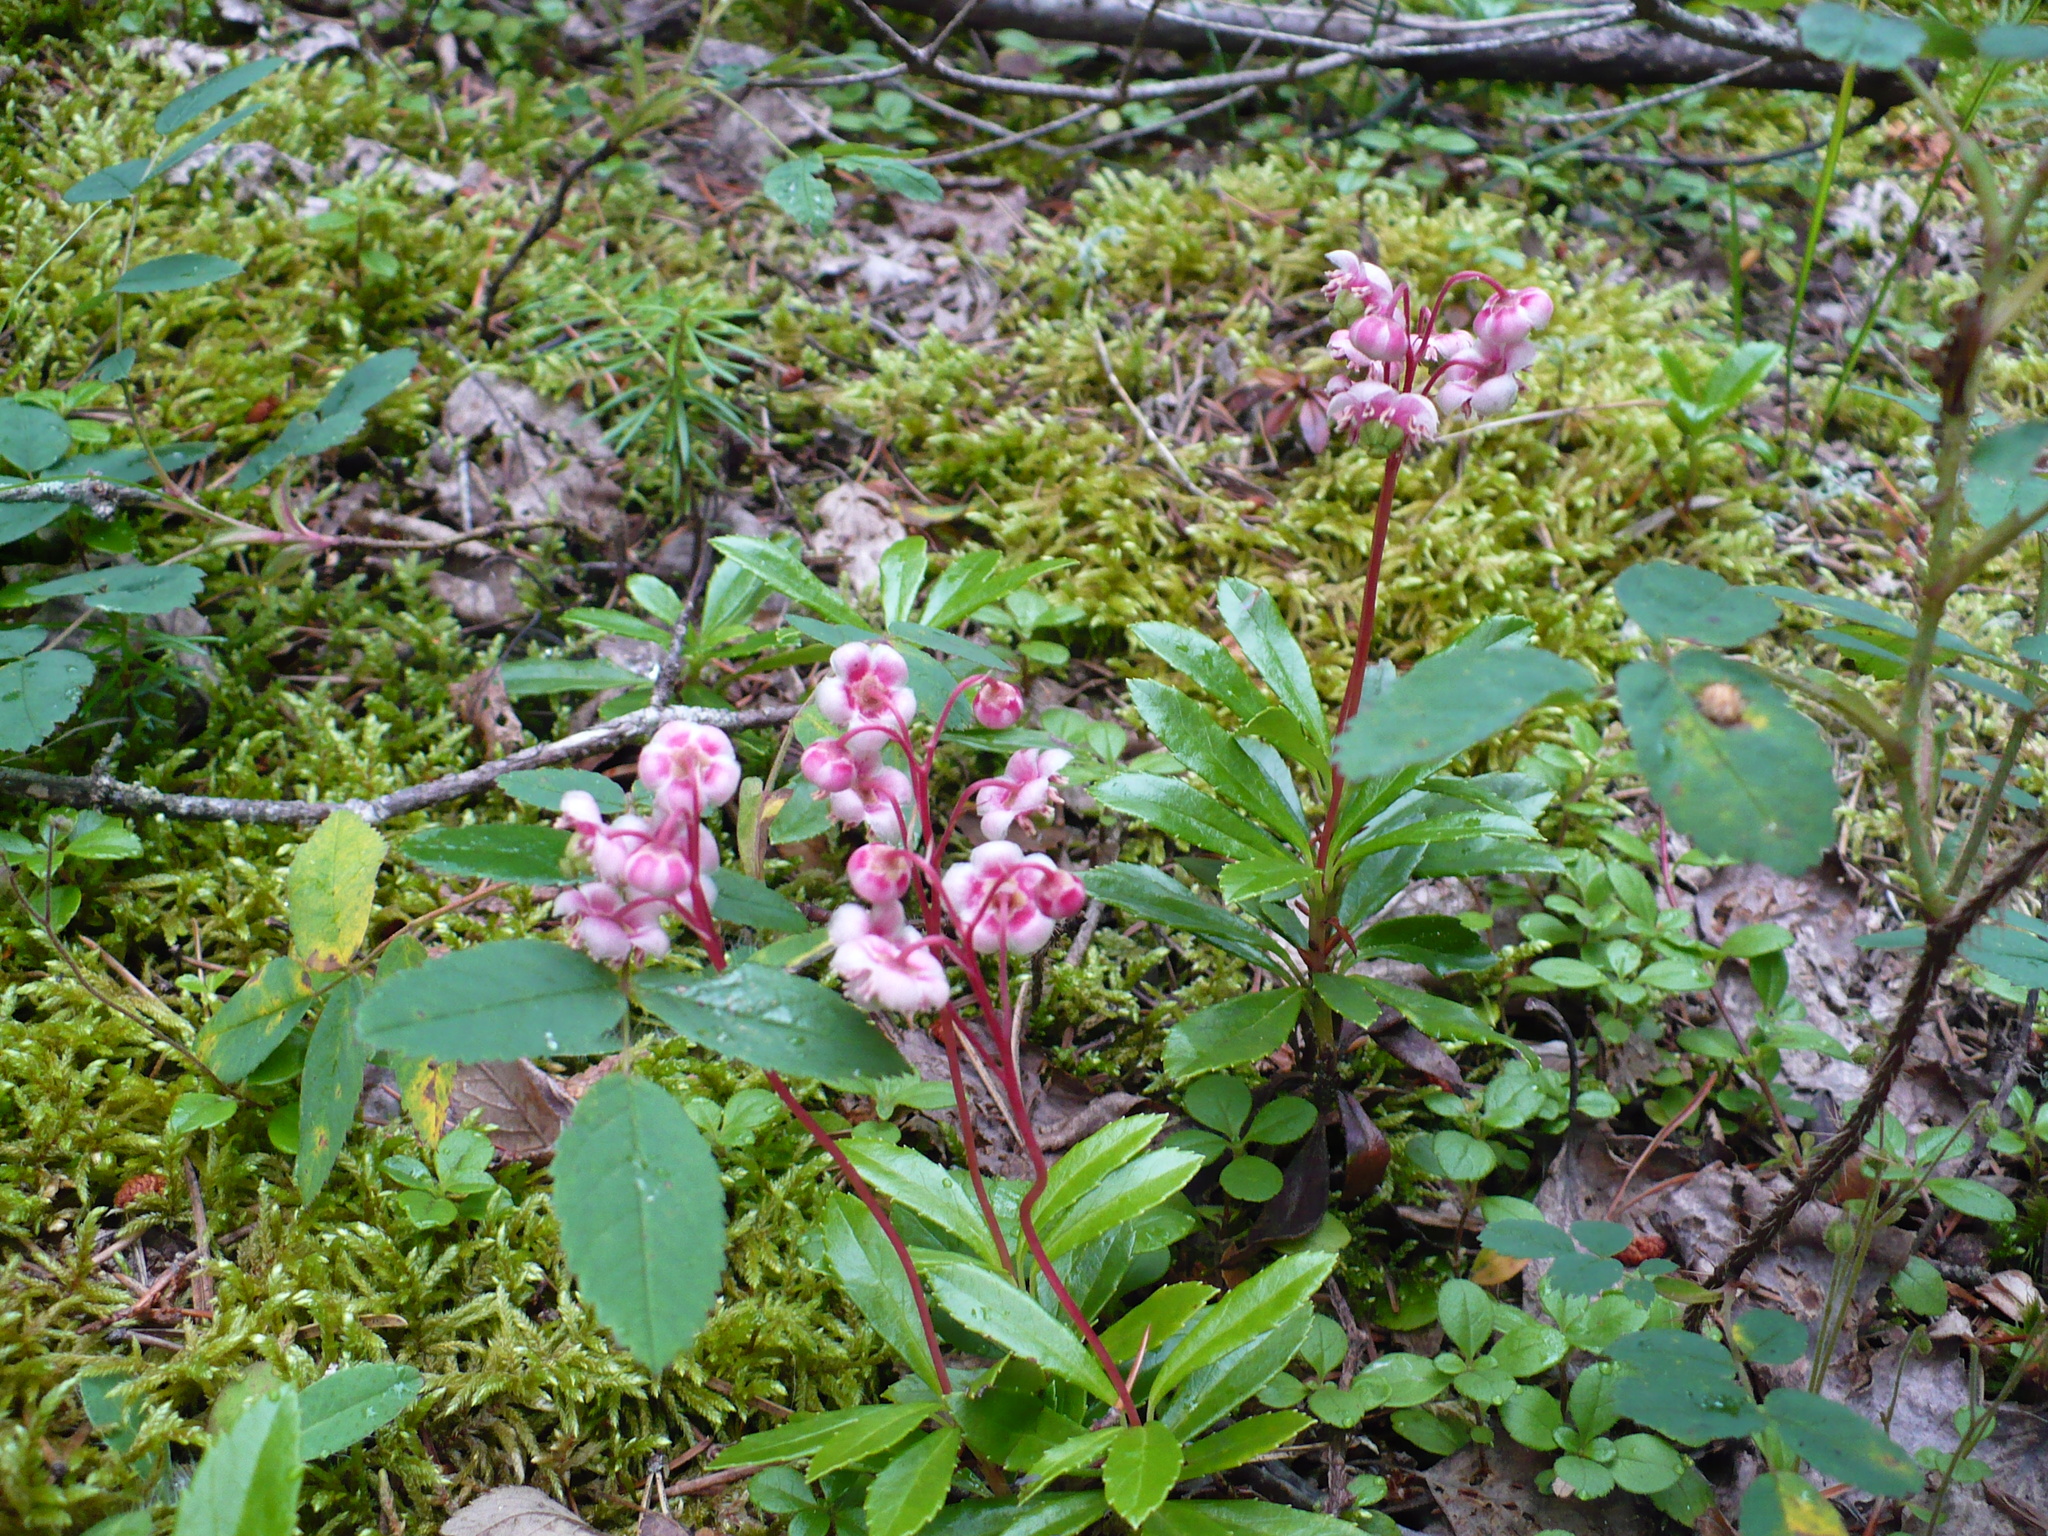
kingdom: Plantae
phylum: Tracheophyta
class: Magnoliopsida
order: Ericales
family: Ericaceae
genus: Chimaphila
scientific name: Chimaphila umbellata
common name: Pipsissewa
